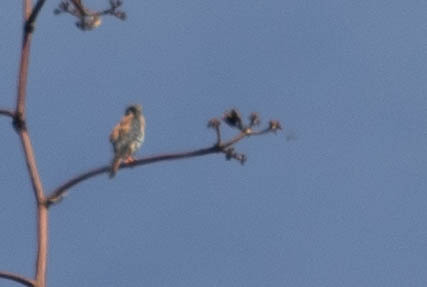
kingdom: Animalia
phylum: Chordata
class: Aves
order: Falconiformes
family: Falconidae
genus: Falco
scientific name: Falco sparverius
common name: American kestrel
